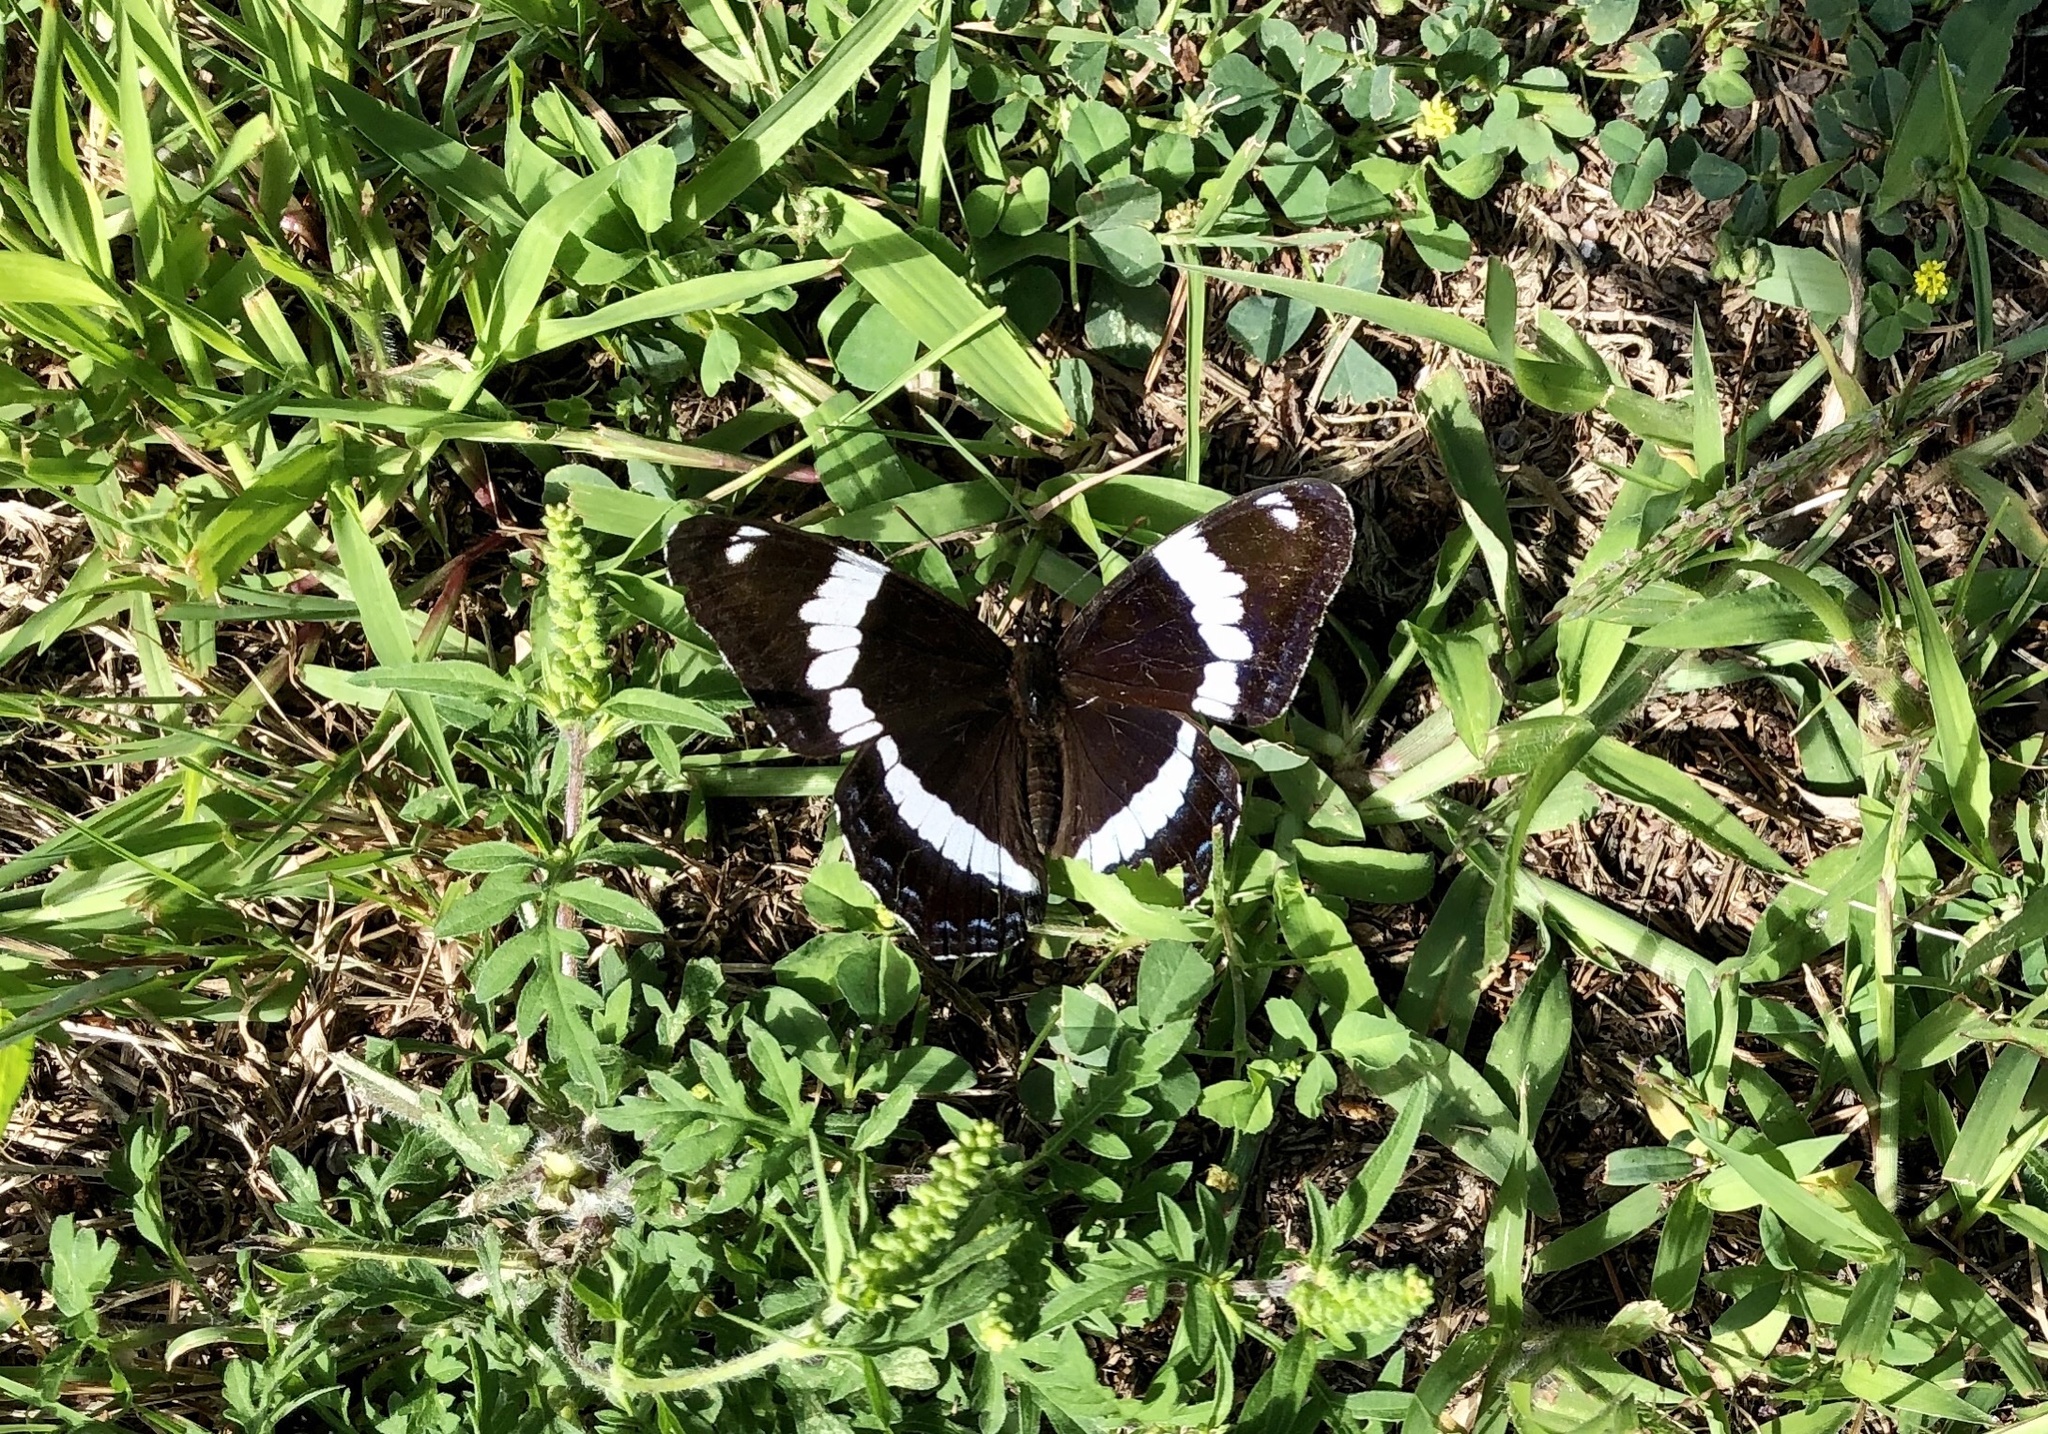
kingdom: Animalia
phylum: Arthropoda
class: Insecta
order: Lepidoptera
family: Nymphalidae
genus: Limenitis
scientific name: Limenitis arthemis
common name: Red-spotted admiral
